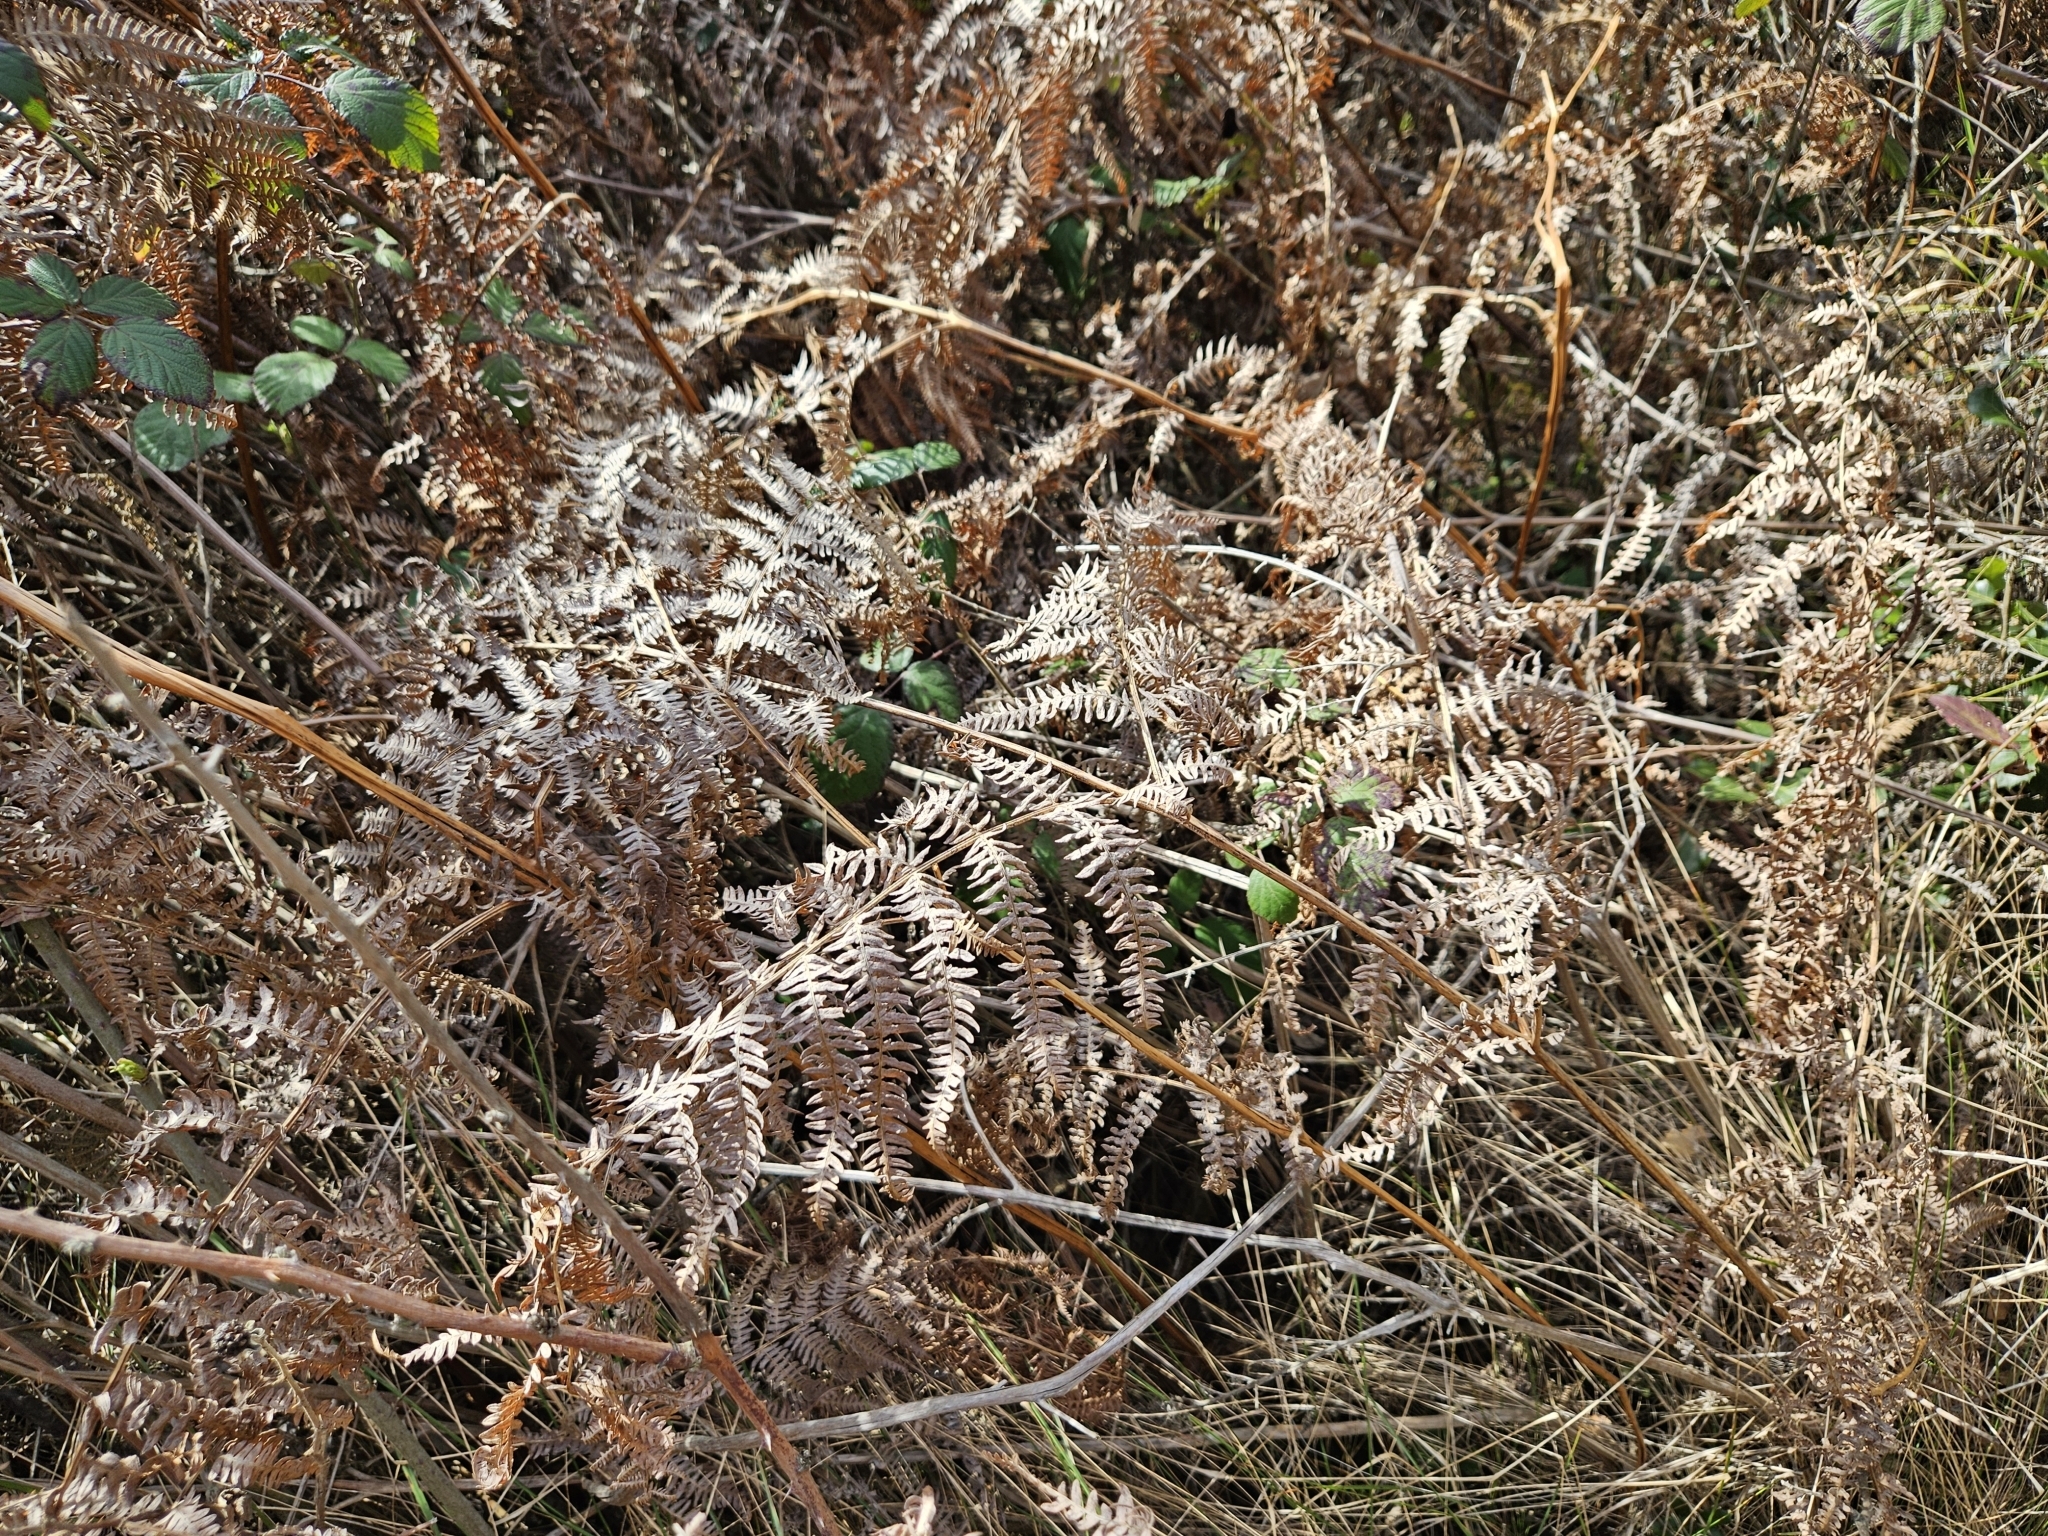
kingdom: Plantae
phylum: Tracheophyta
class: Polypodiopsida
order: Polypodiales
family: Dennstaedtiaceae
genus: Pteridium
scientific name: Pteridium aquilinum
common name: Bracken
